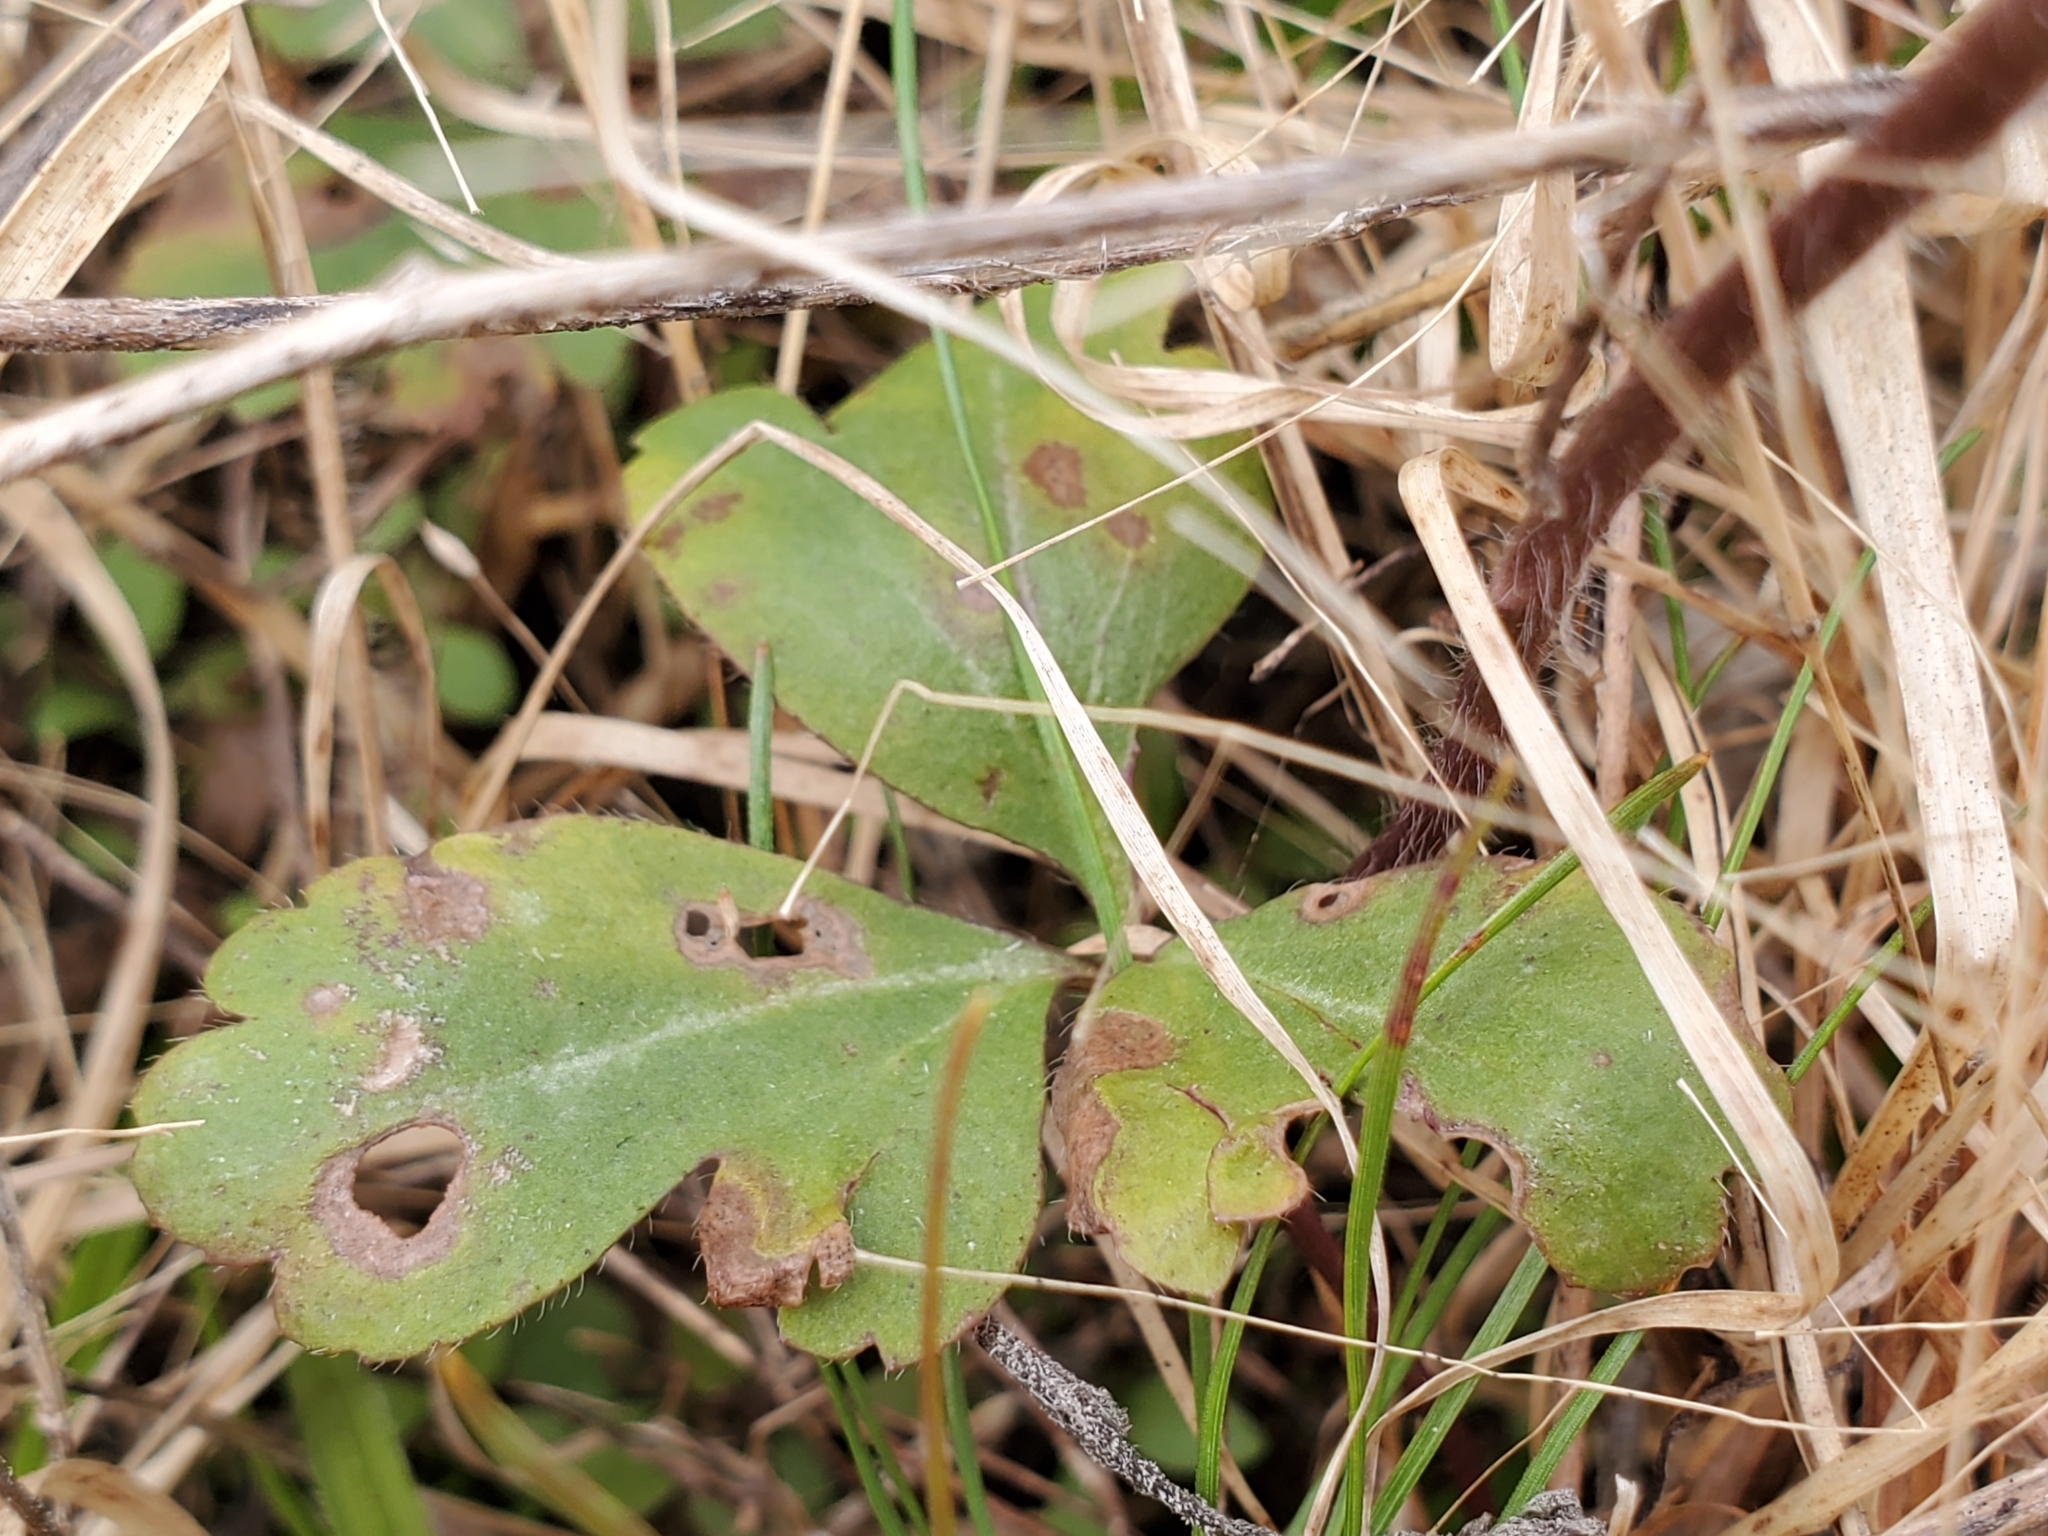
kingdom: Plantae
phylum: Tracheophyta
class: Magnoliopsida
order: Ranunculales
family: Ranunculaceae
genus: Anemone
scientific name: Anemone berlandieri
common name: Ten-petal anemone
